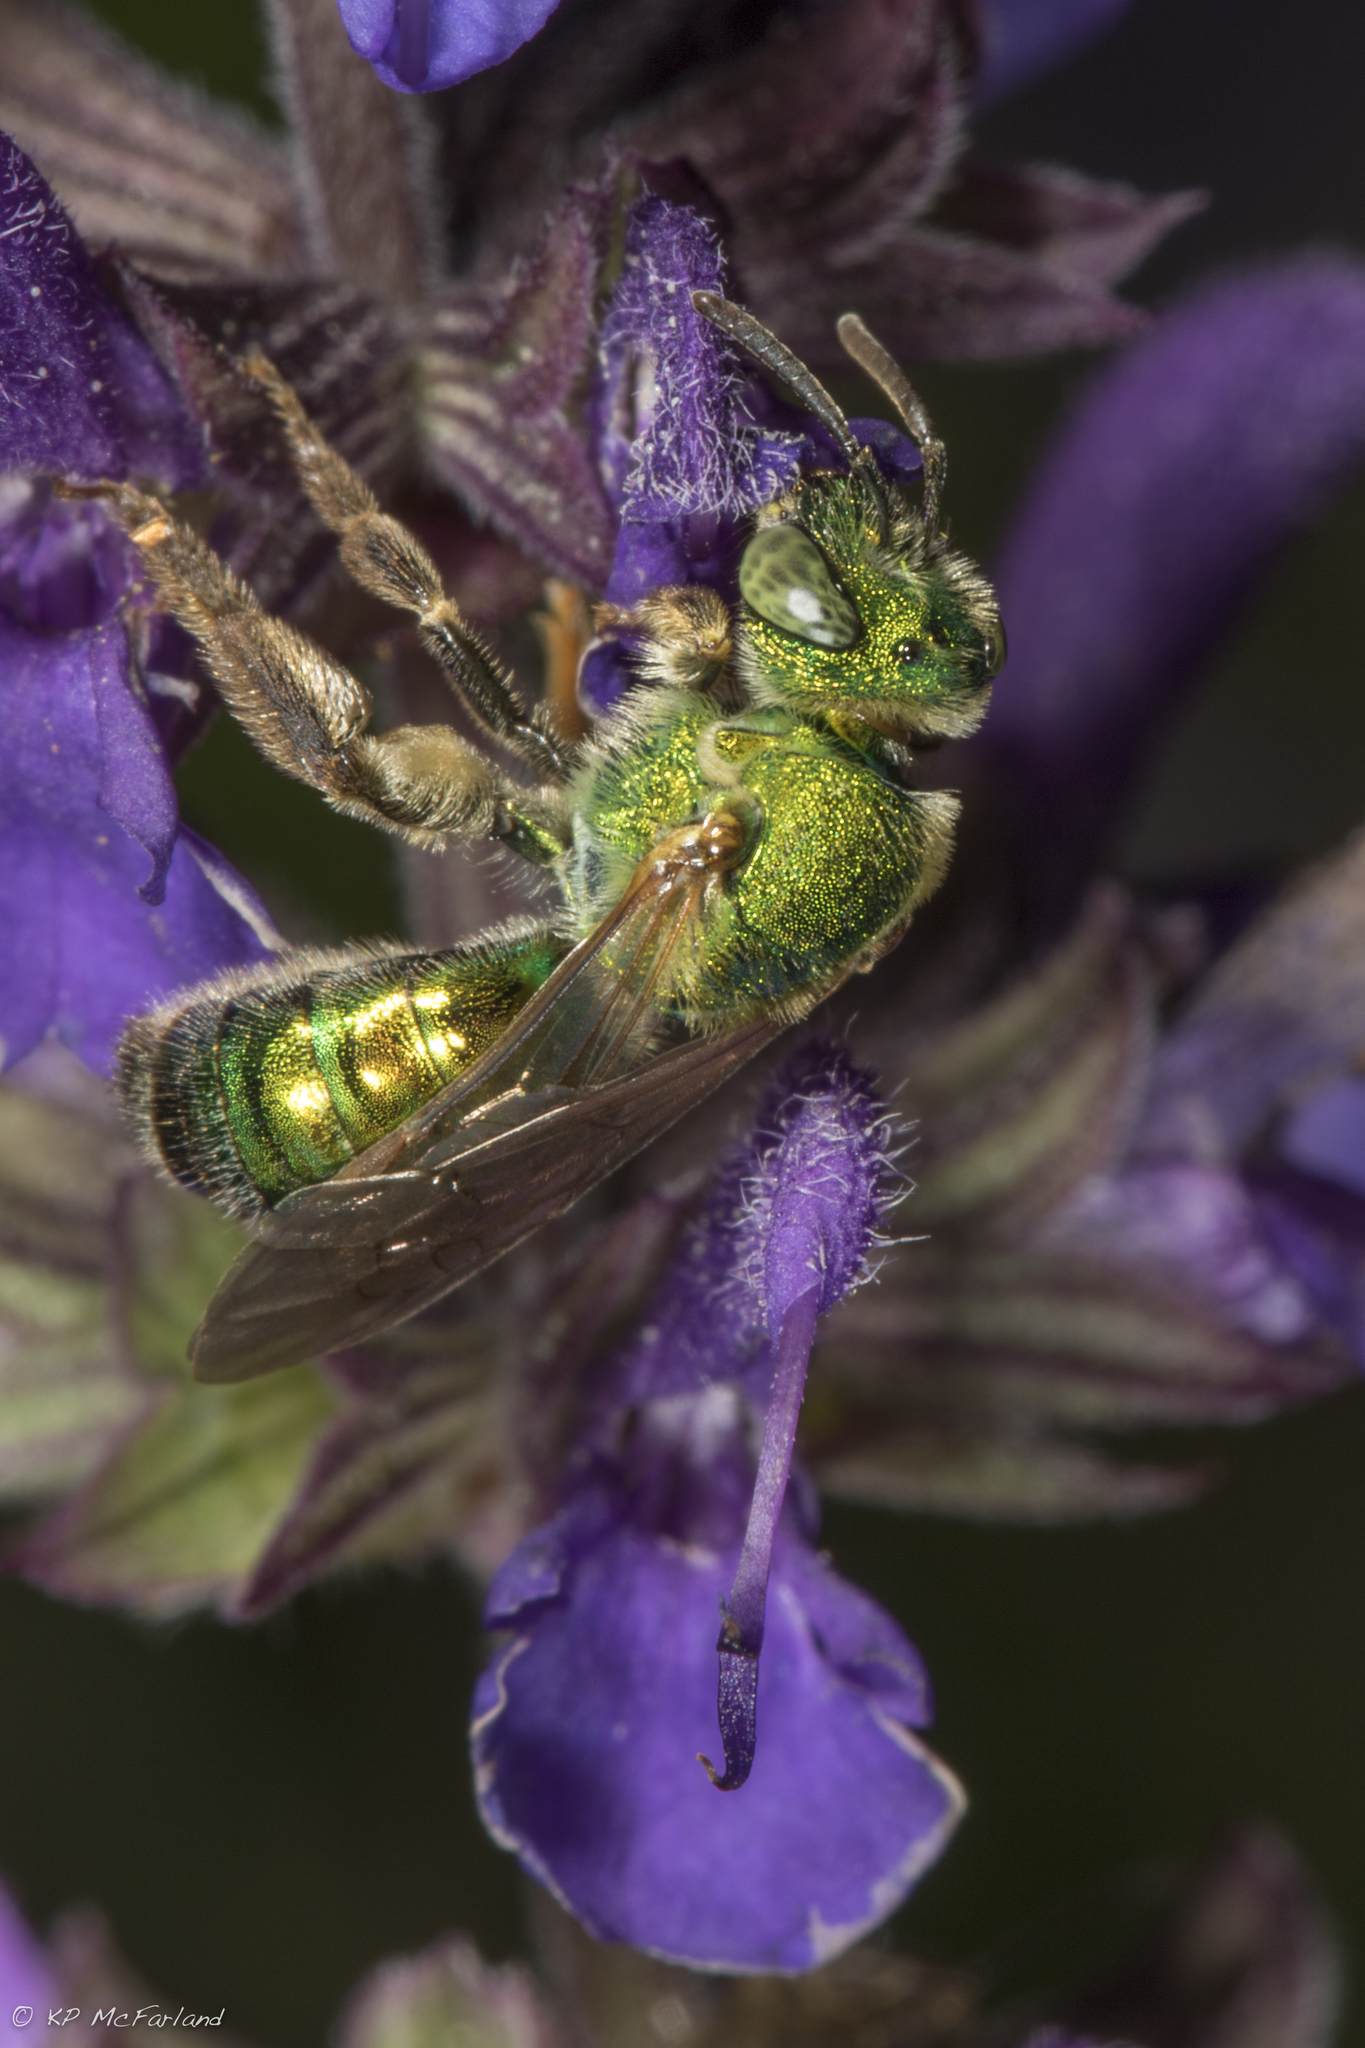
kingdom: Animalia
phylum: Arthropoda
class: Insecta
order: Hymenoptera
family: Halictidae
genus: Agapostemon
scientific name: Agapostemon sericeus
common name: Silky striped sweat bee
